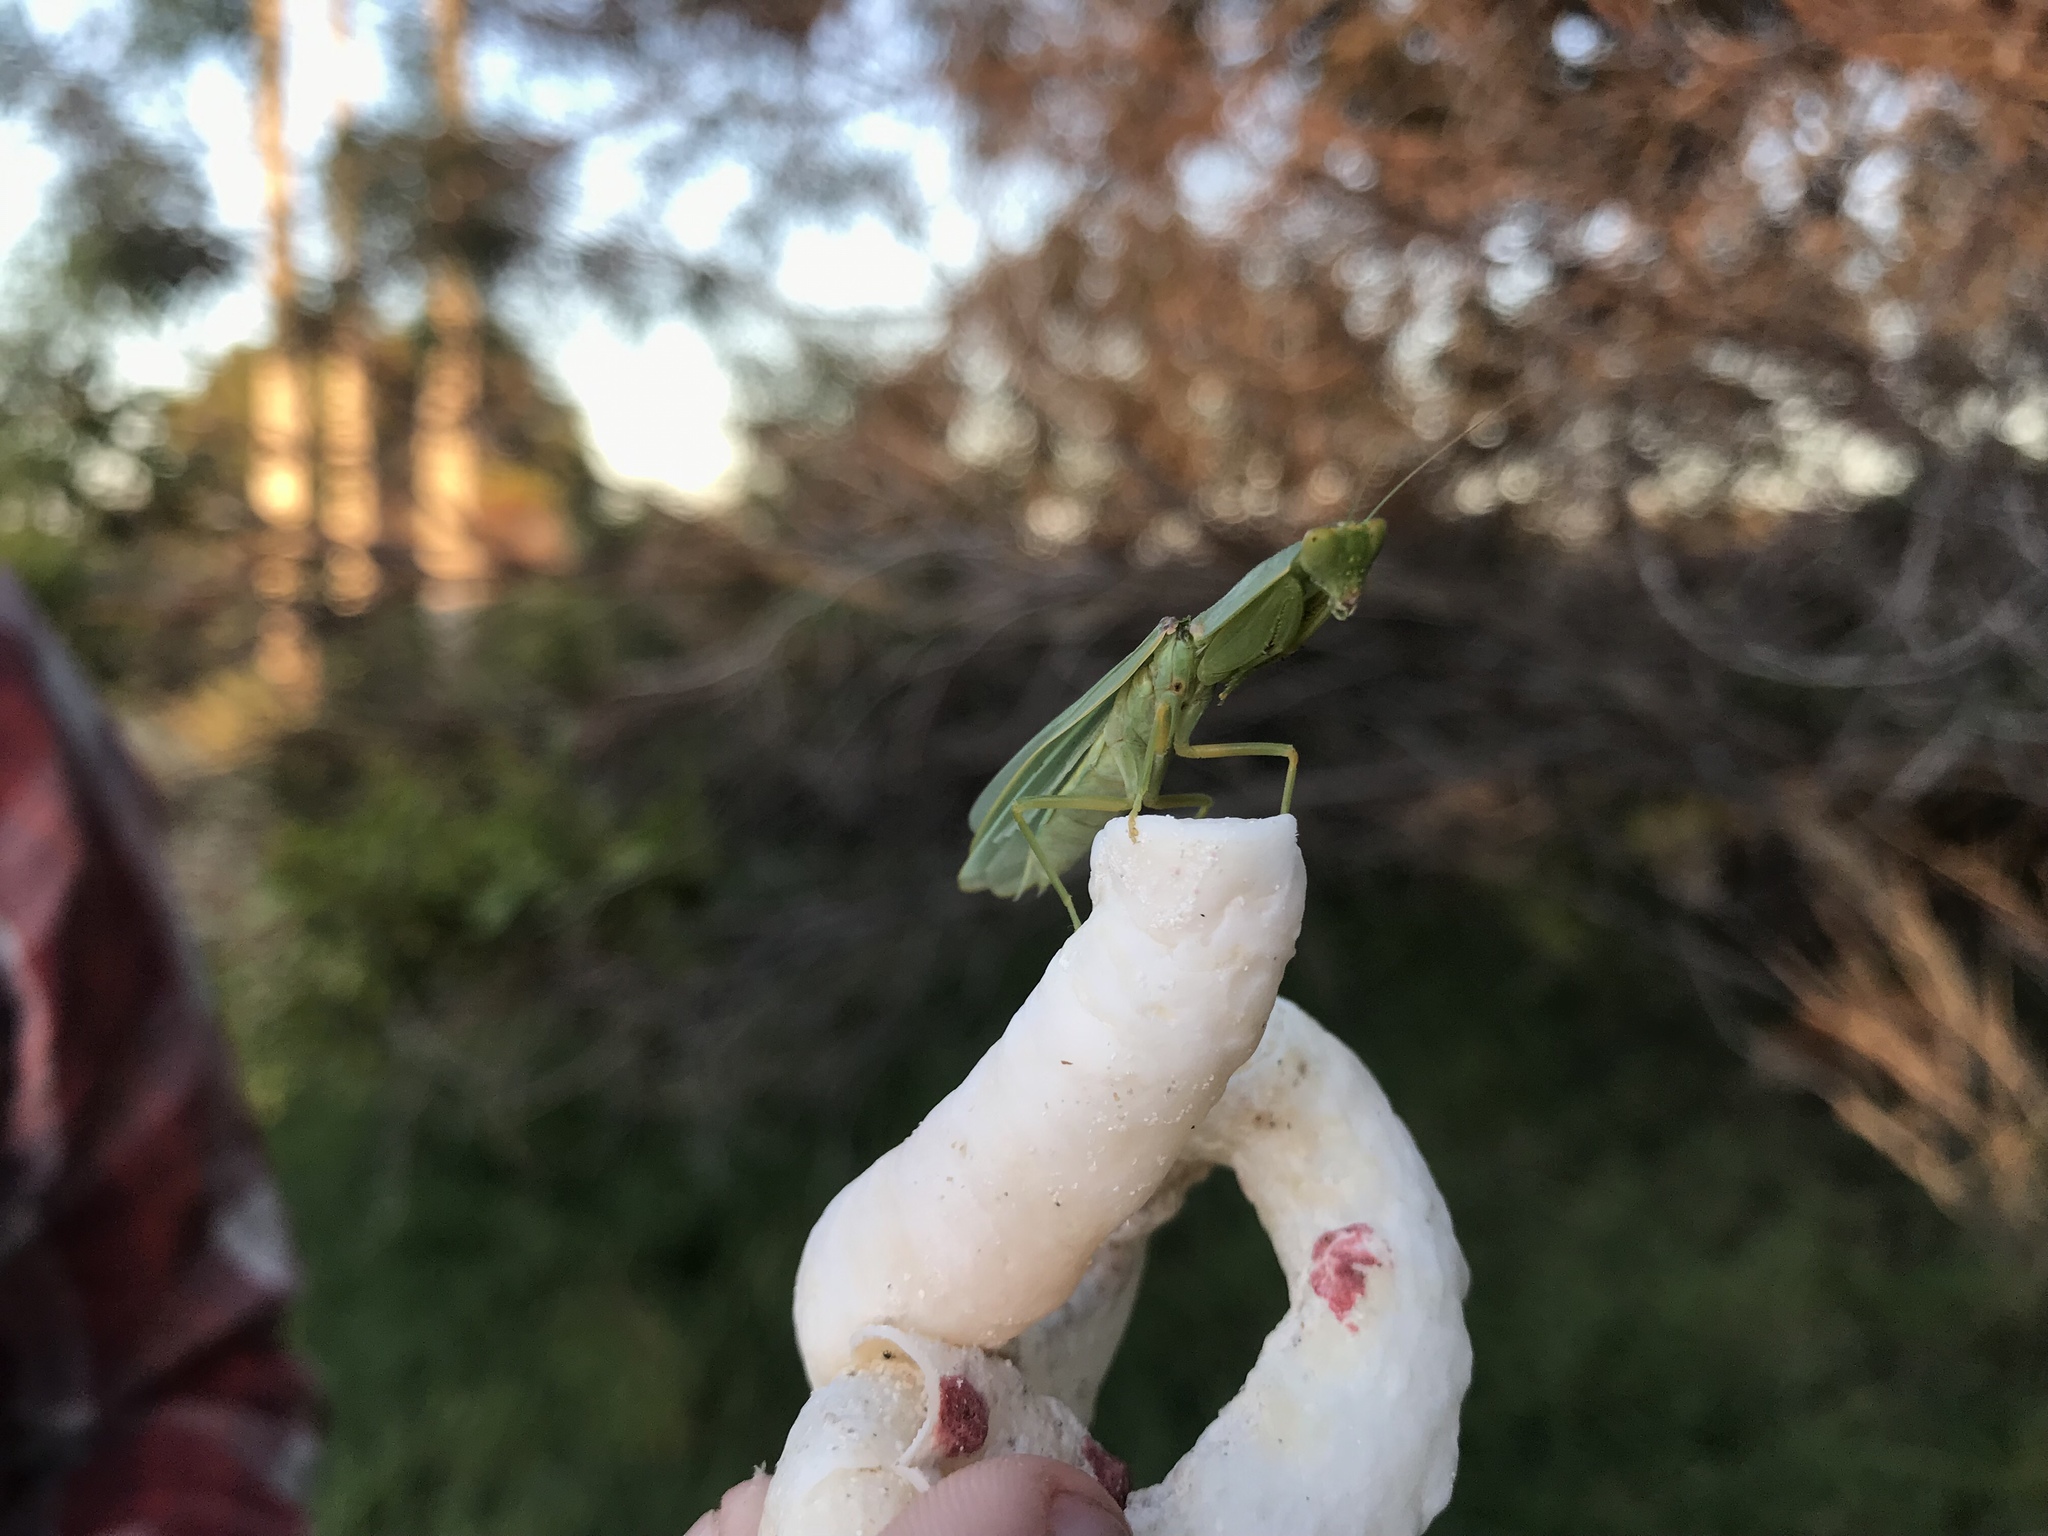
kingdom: Animalia
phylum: Arthropoda
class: Insecta
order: Mantodea
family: Mantidae
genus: Orthodera
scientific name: Orthodera ministralis
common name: Mantis
